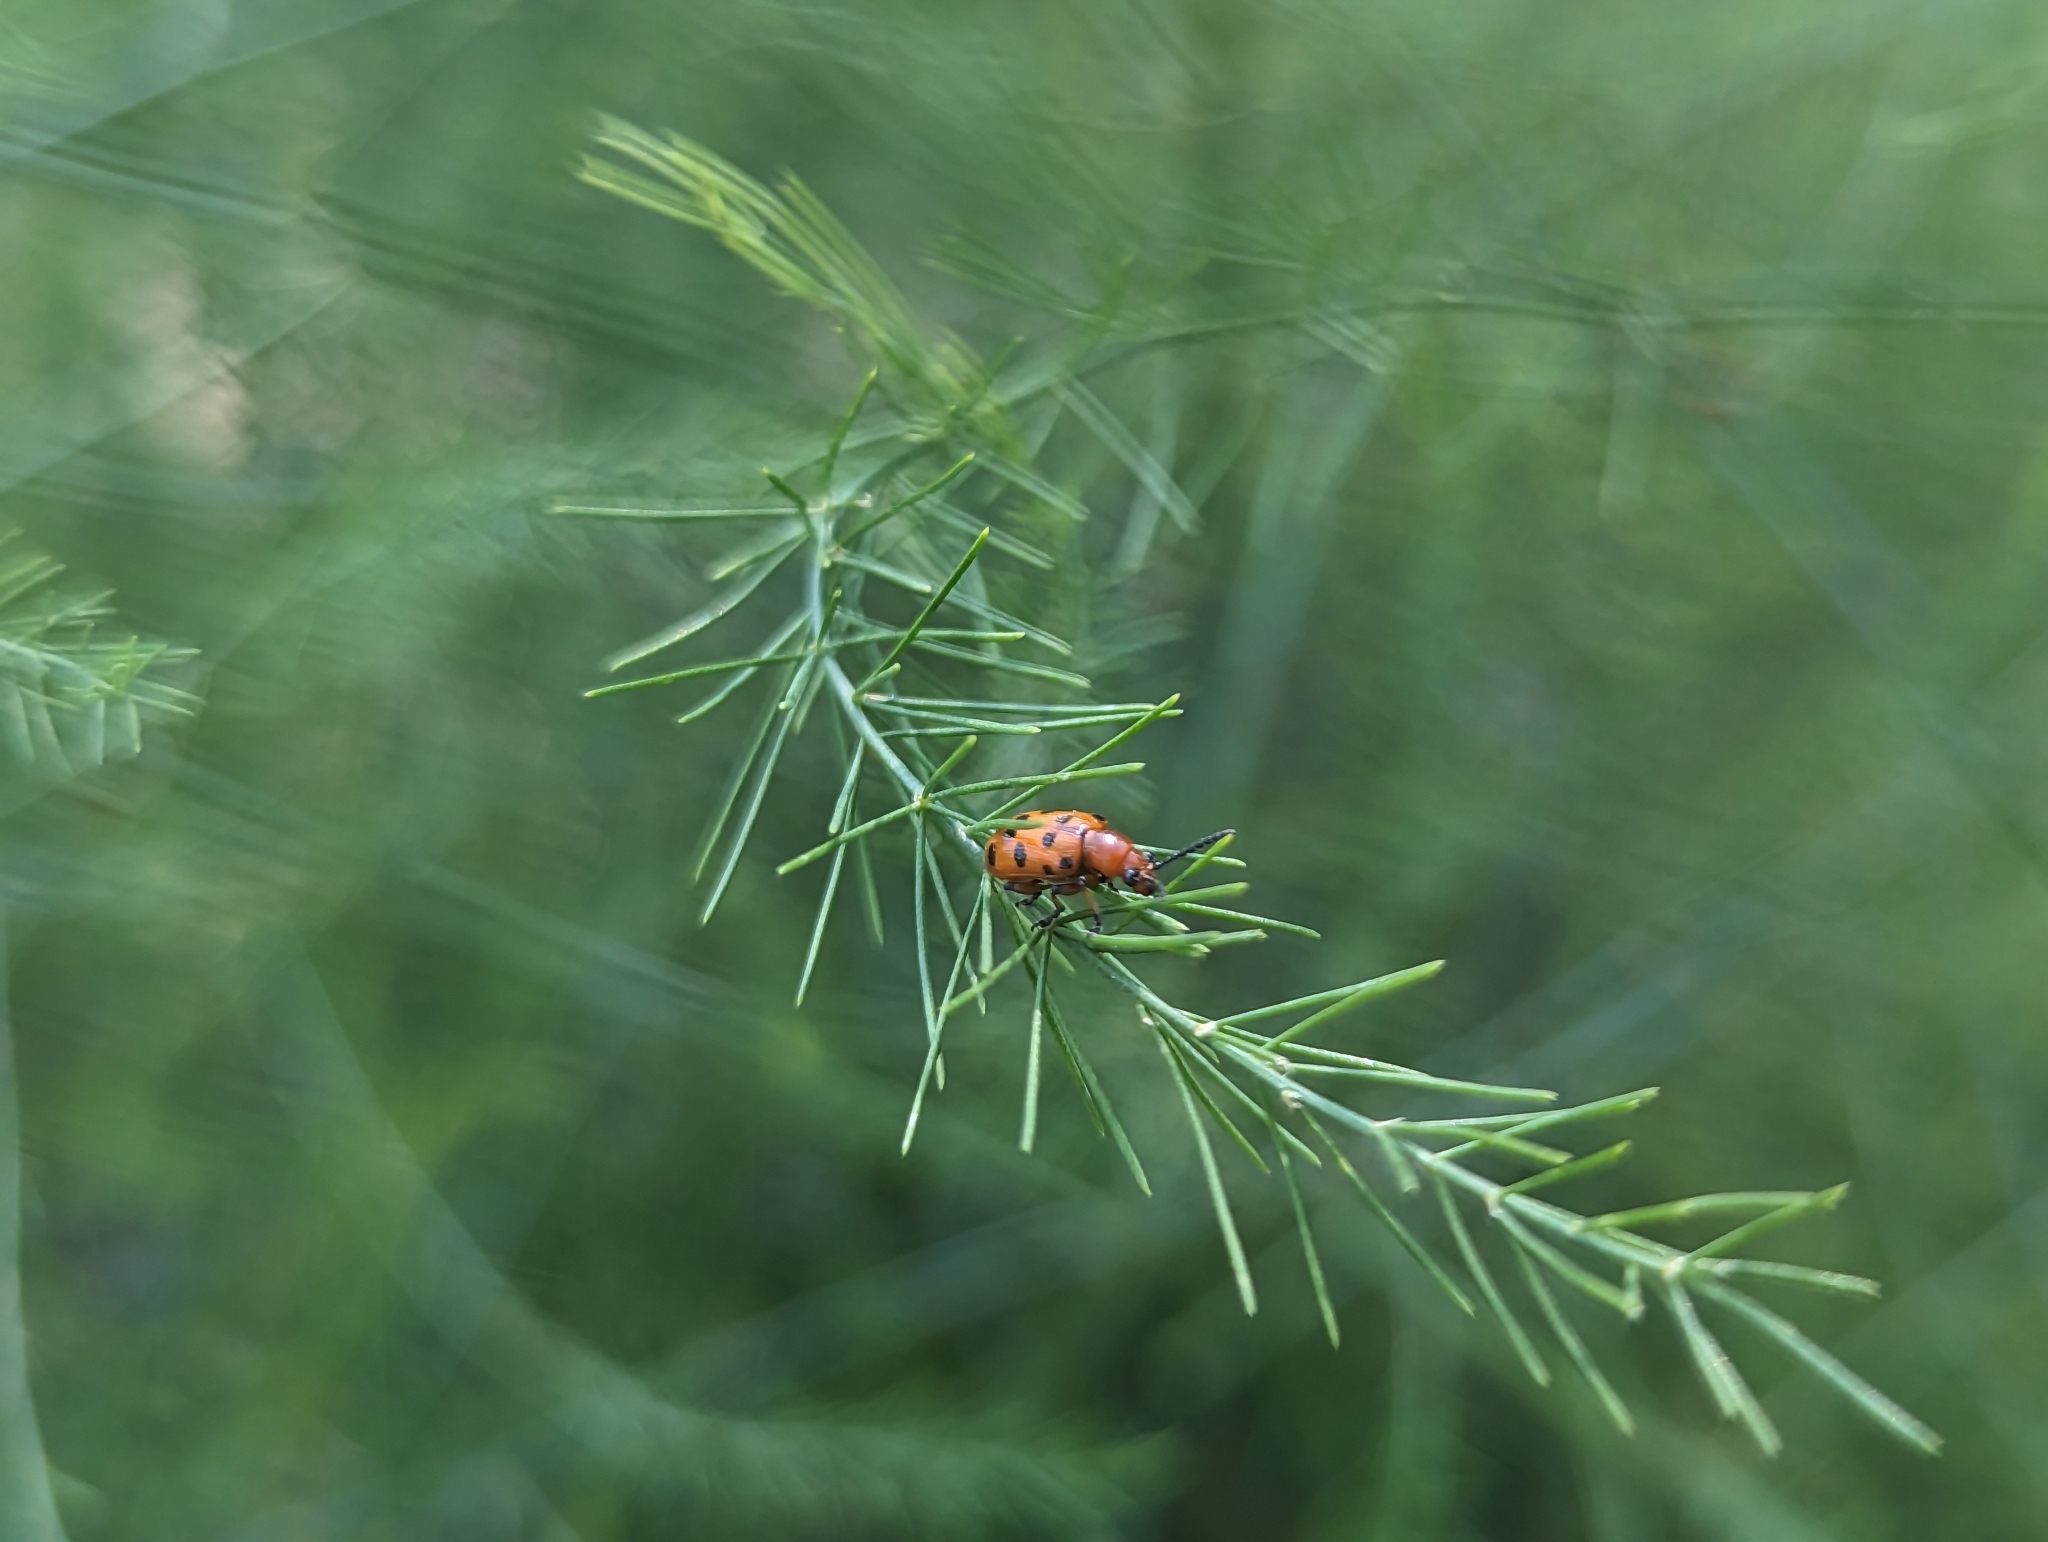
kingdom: Animalia
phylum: Arthropoda
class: Insecta
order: Coleoptera
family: Chrysomelidae
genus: Crioceris
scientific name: Crioceris duodecimpunctata
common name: Twelve-spotted asparagus beetle
